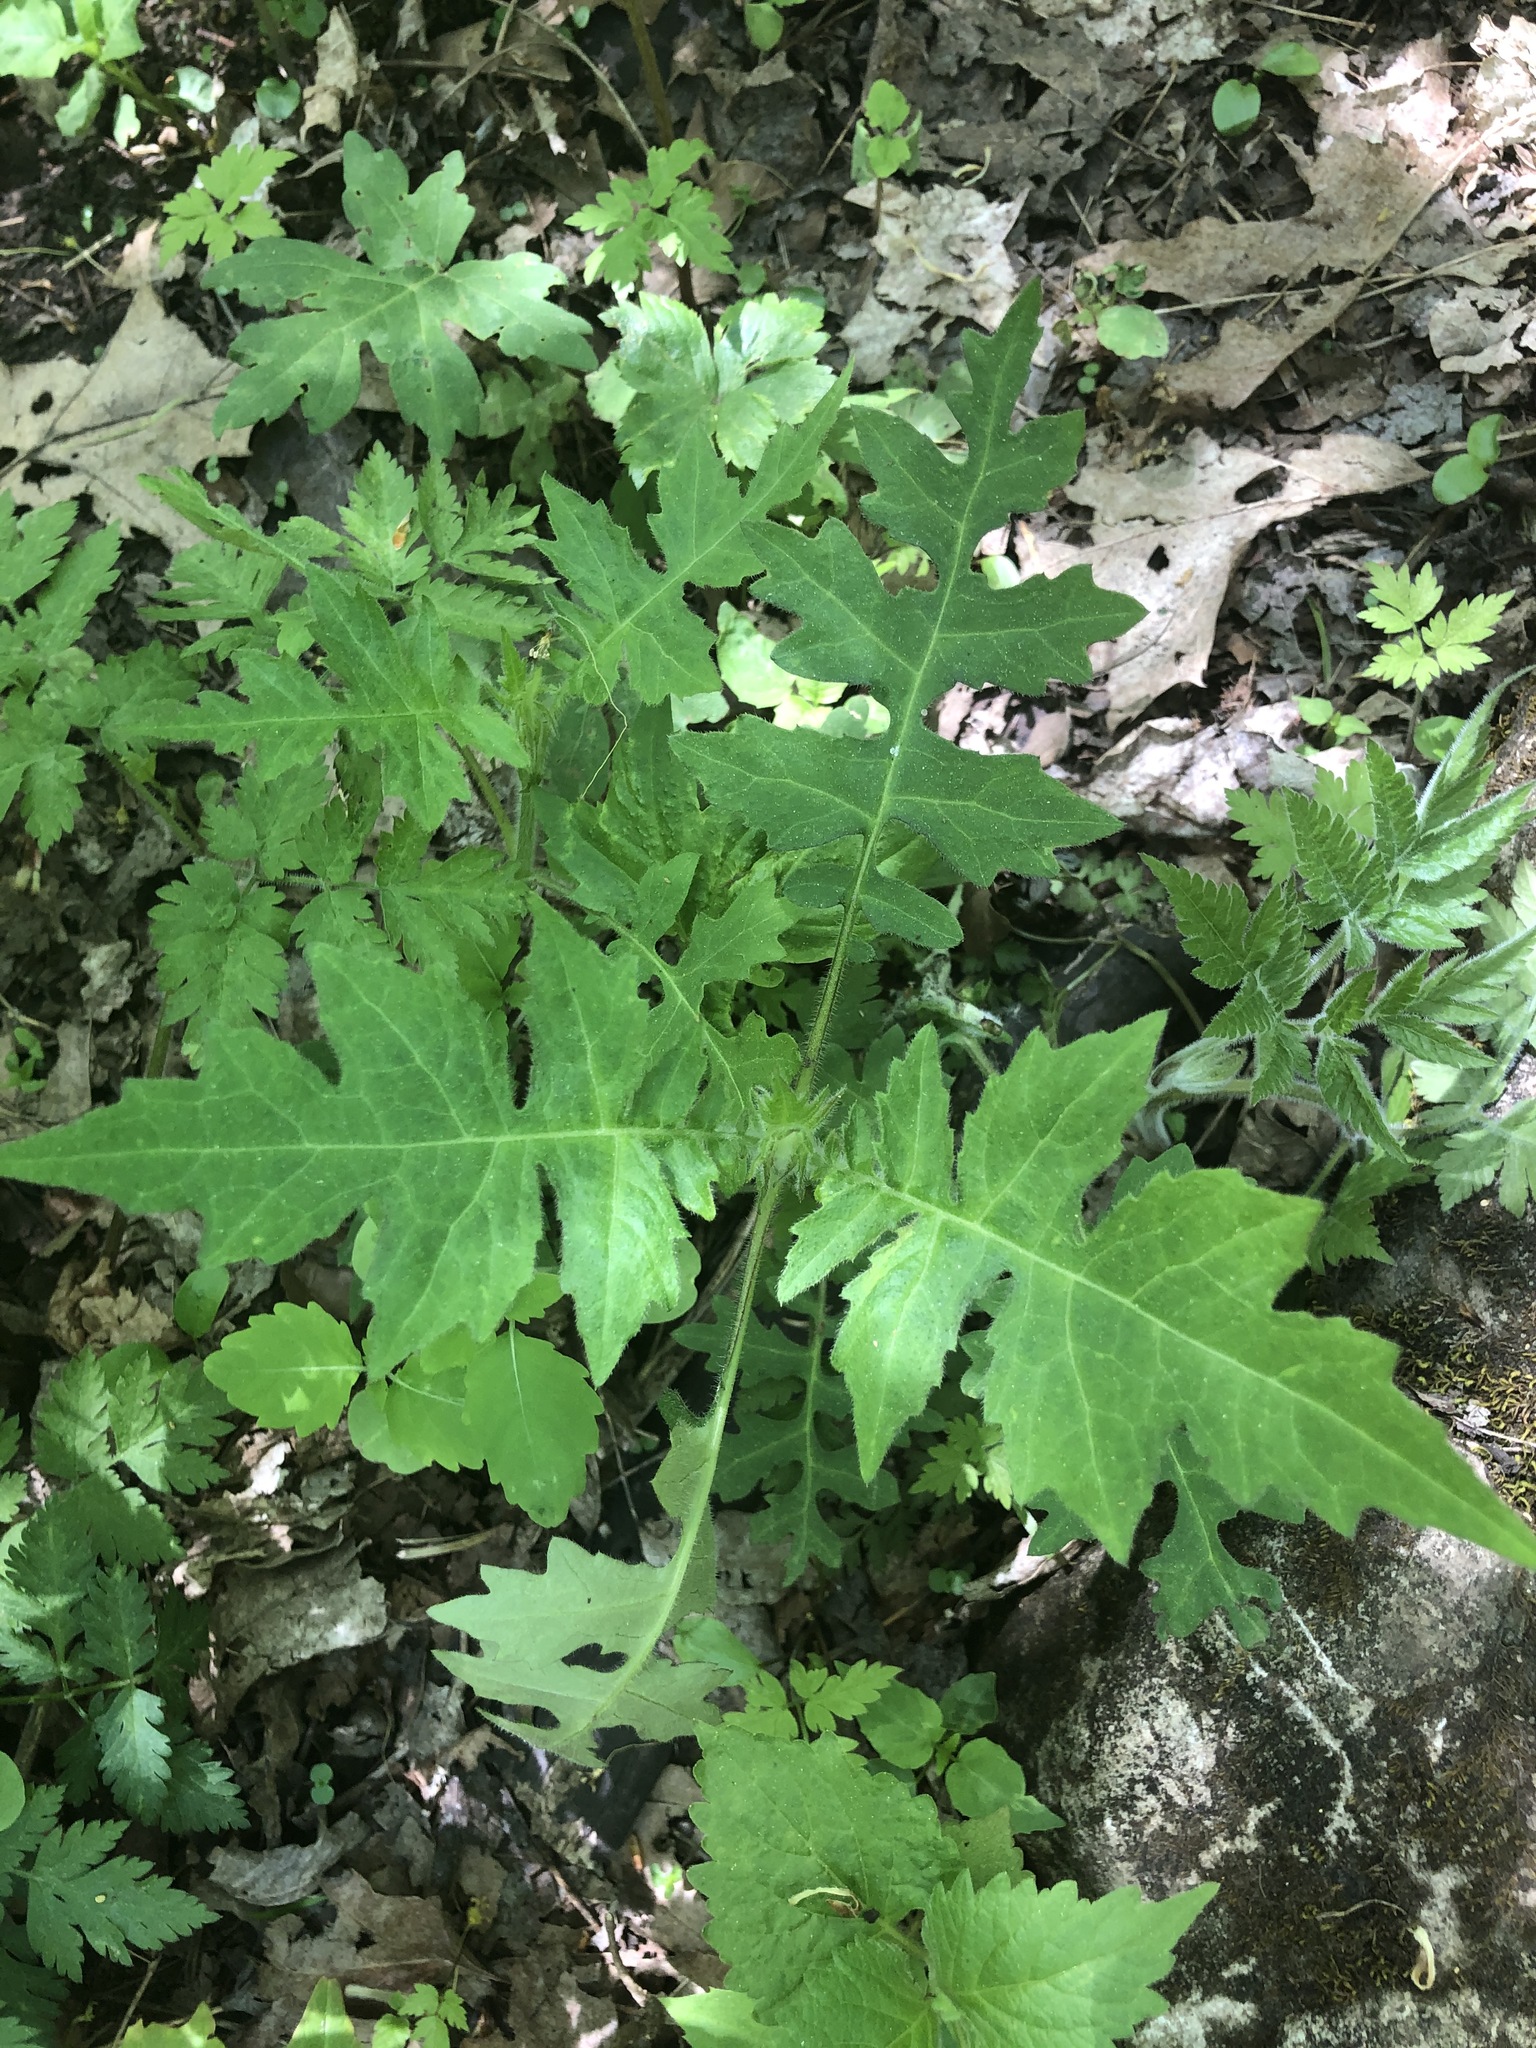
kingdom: Plantae
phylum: Tracheophyta
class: Magnoliopsida
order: Asterales
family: Asteraceae
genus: Polymnia
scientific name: Polymnia canadensis
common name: Pale-flowered leafcup
